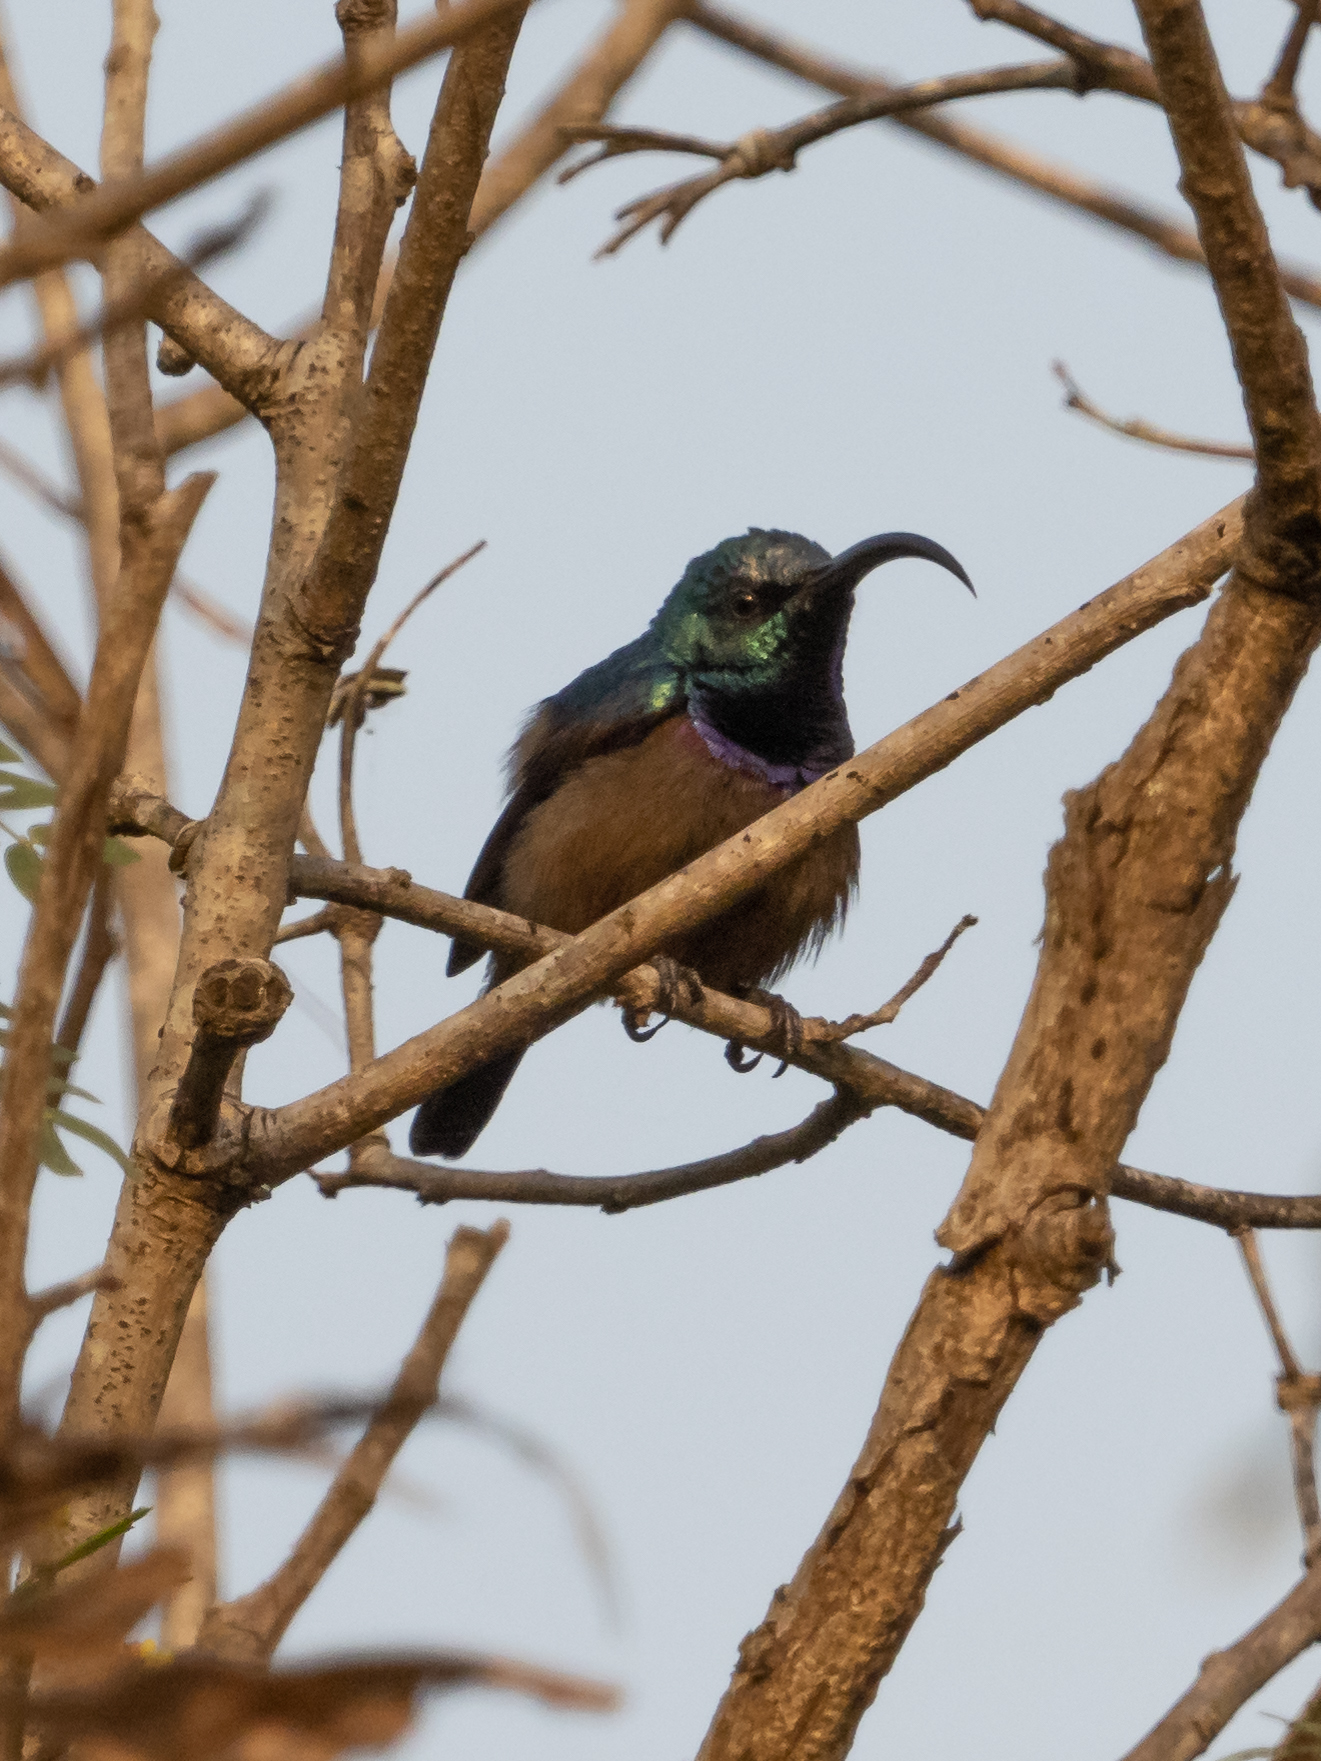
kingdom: Animalia
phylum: Chordata
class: Aves
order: Passeriformes
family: Nectariniidae
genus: Cinnyris
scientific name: Cinnyris lotenius
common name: Loten's sunbird
